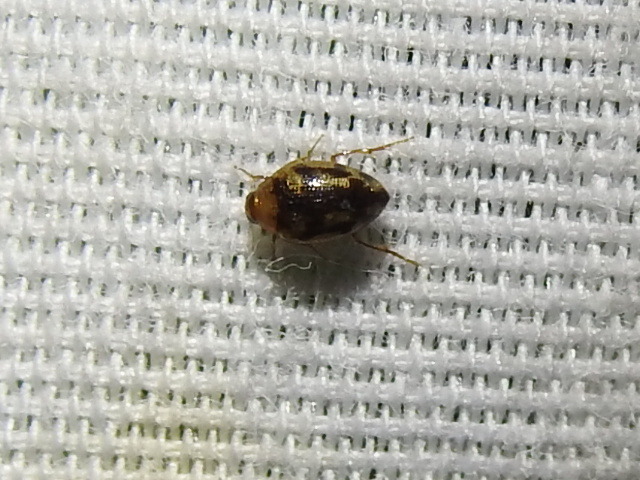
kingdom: Animalia
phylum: Arthropoda
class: Insecta
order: Coleoptera
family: Haliplidae
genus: Haliplus
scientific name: Haliplus
